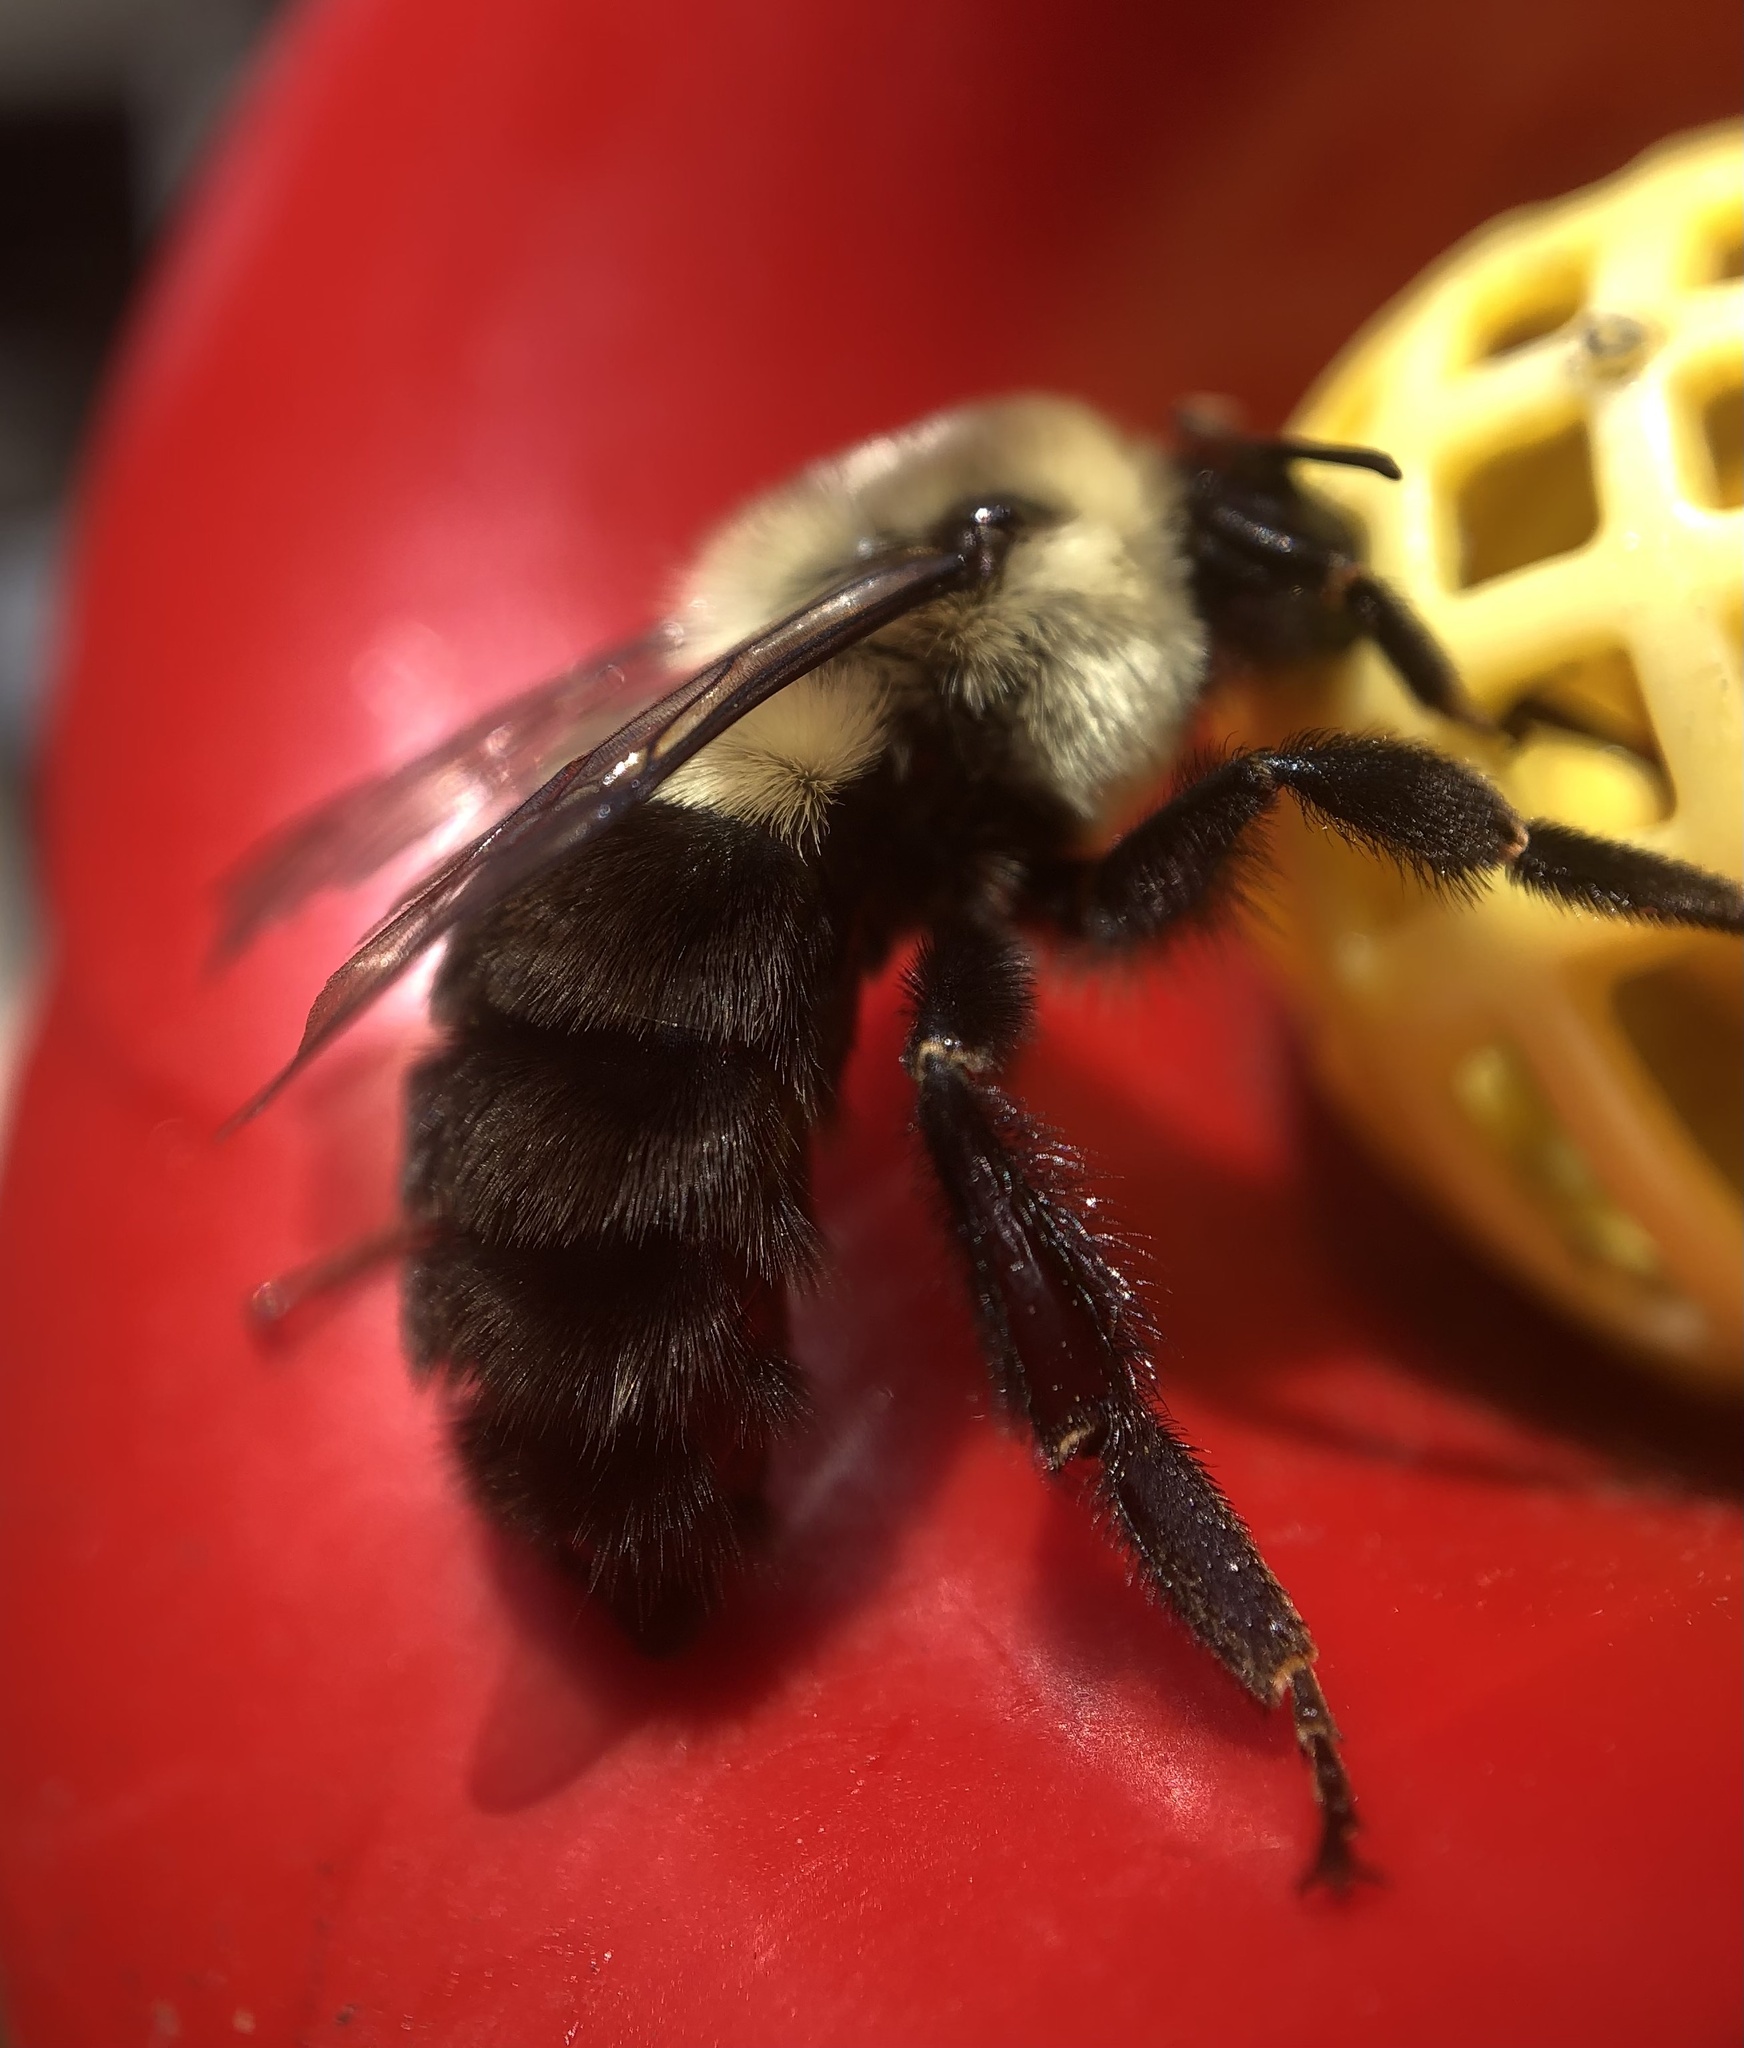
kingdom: Animalia
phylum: Arthropoda
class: Insecta
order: Hymenoptera
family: Apidae
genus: Bombus
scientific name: Bombus impatiens
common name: Common eastern bumble bee
